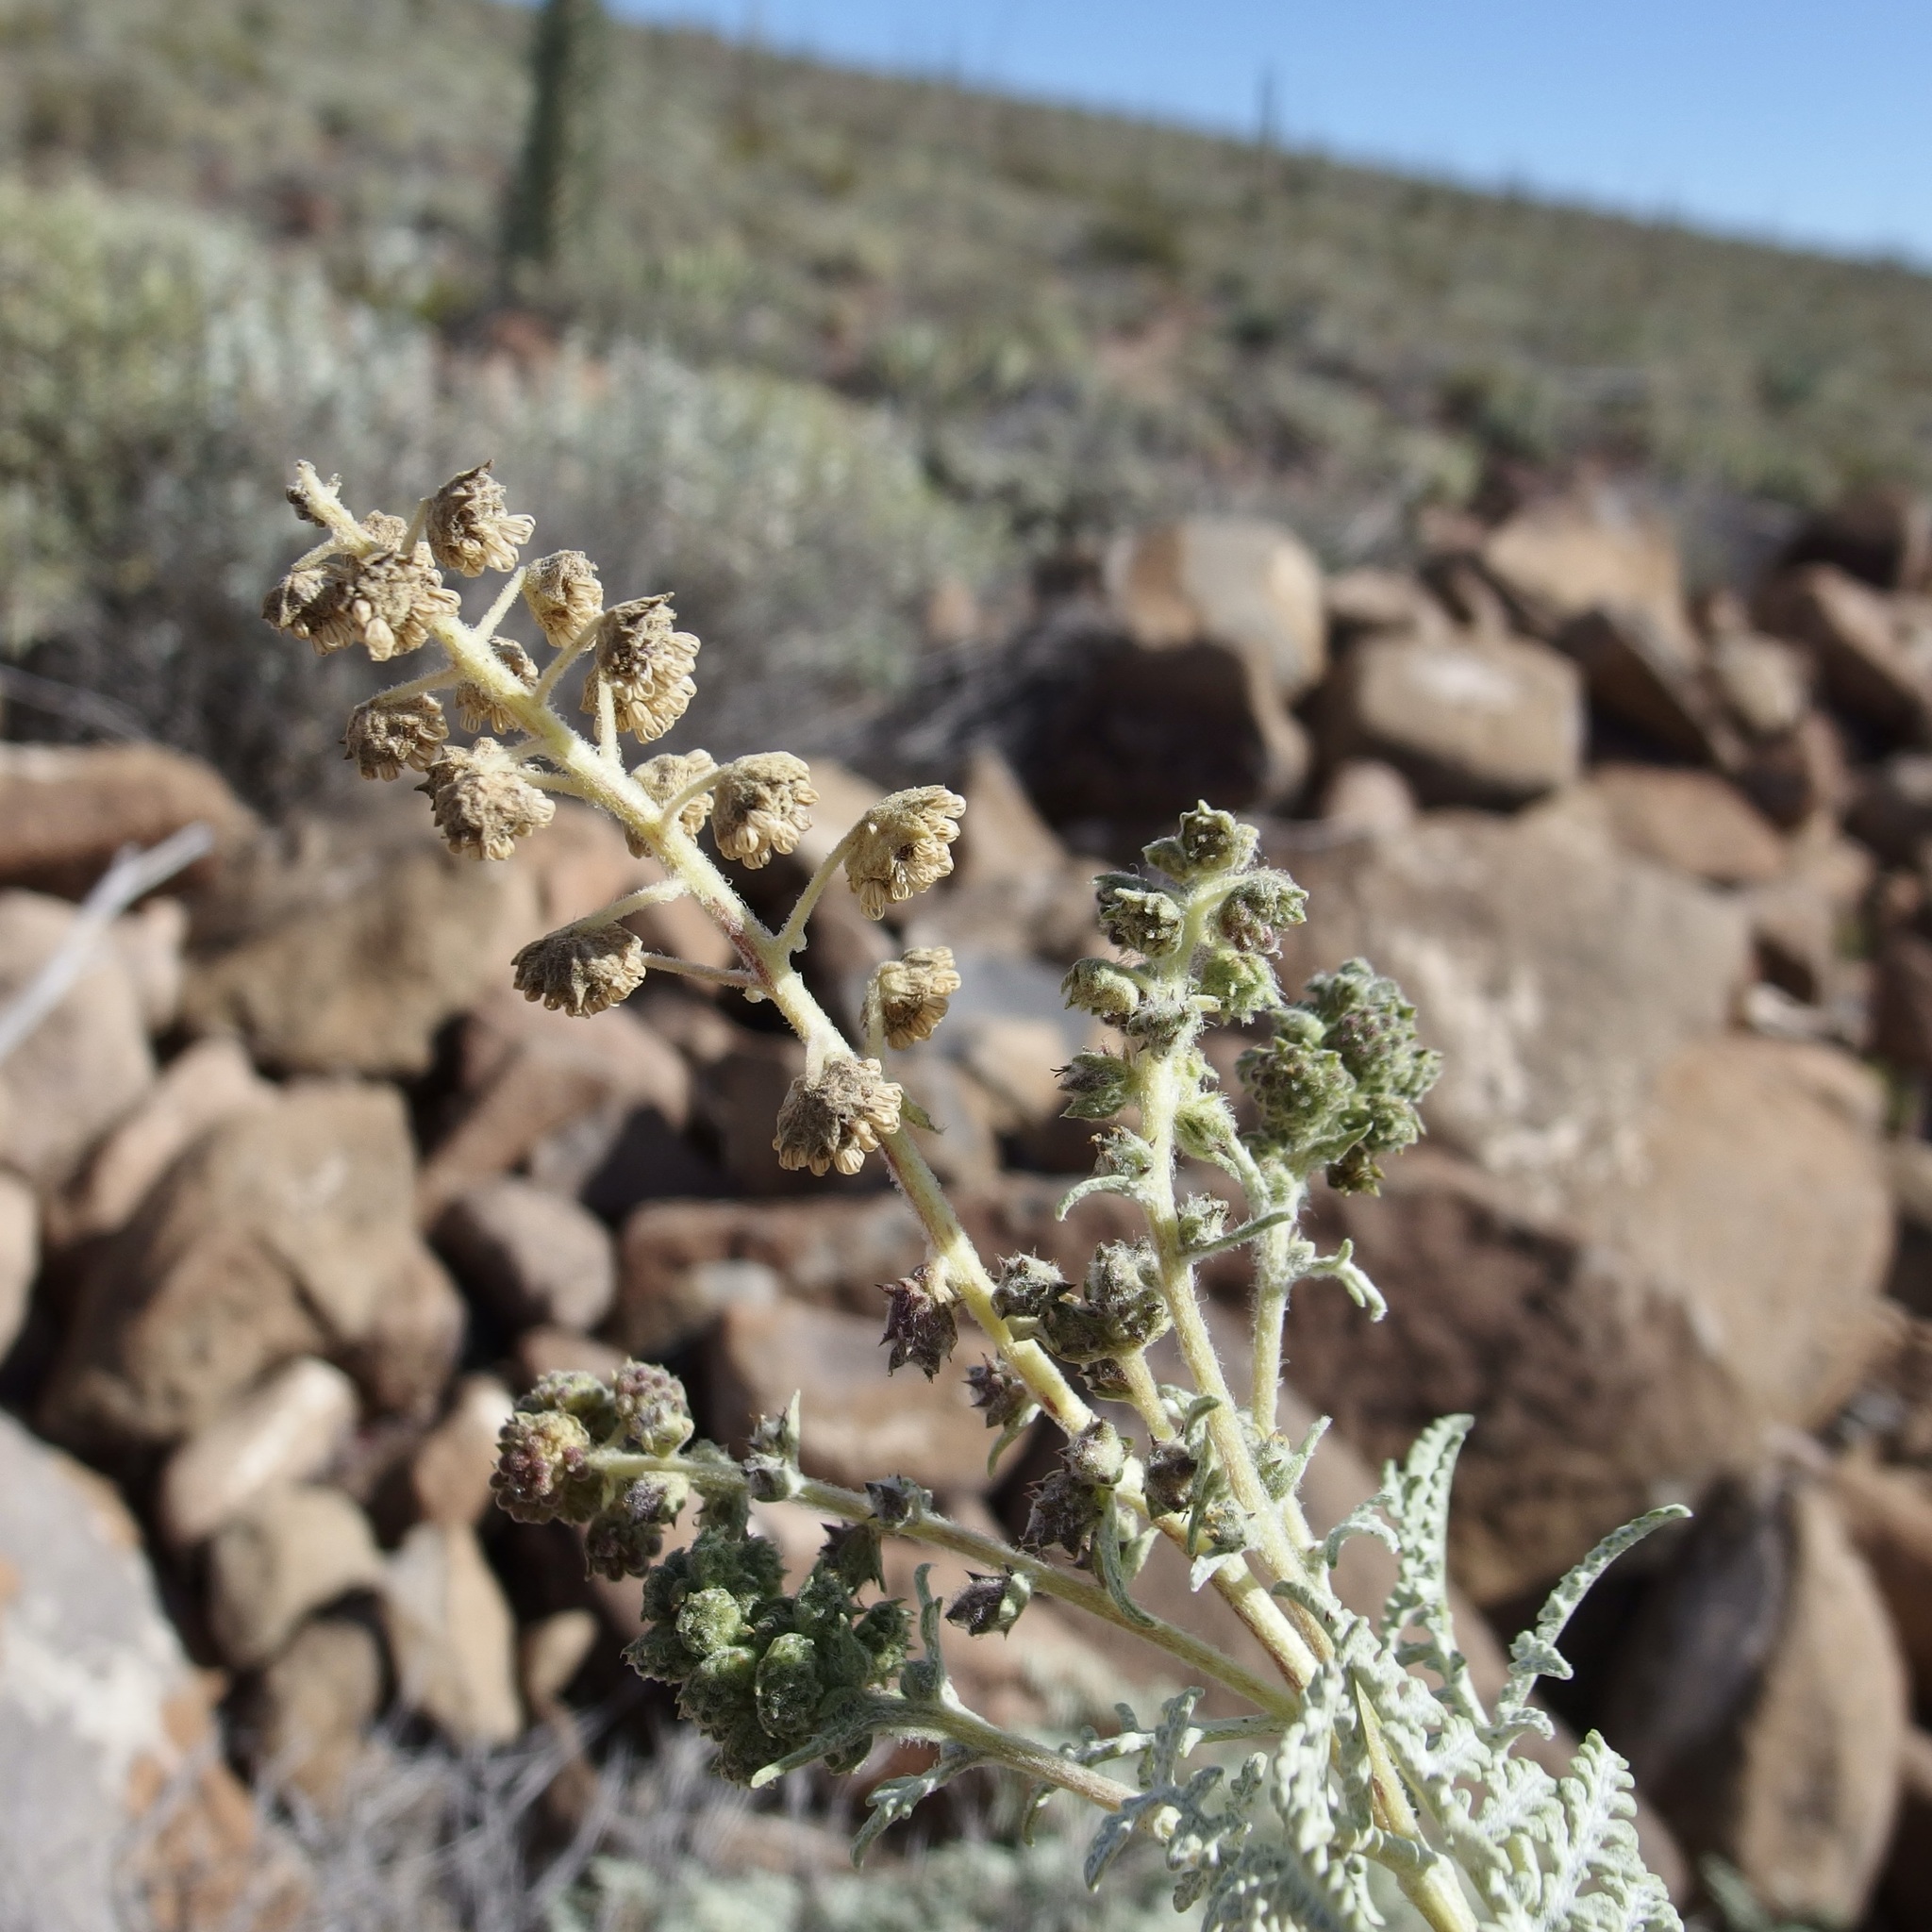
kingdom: Plantae
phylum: Tracheophyta
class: Magnoliopsida
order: Asterales
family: Asteraceae
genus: Ambrosia
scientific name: Ambrosia camphorata
